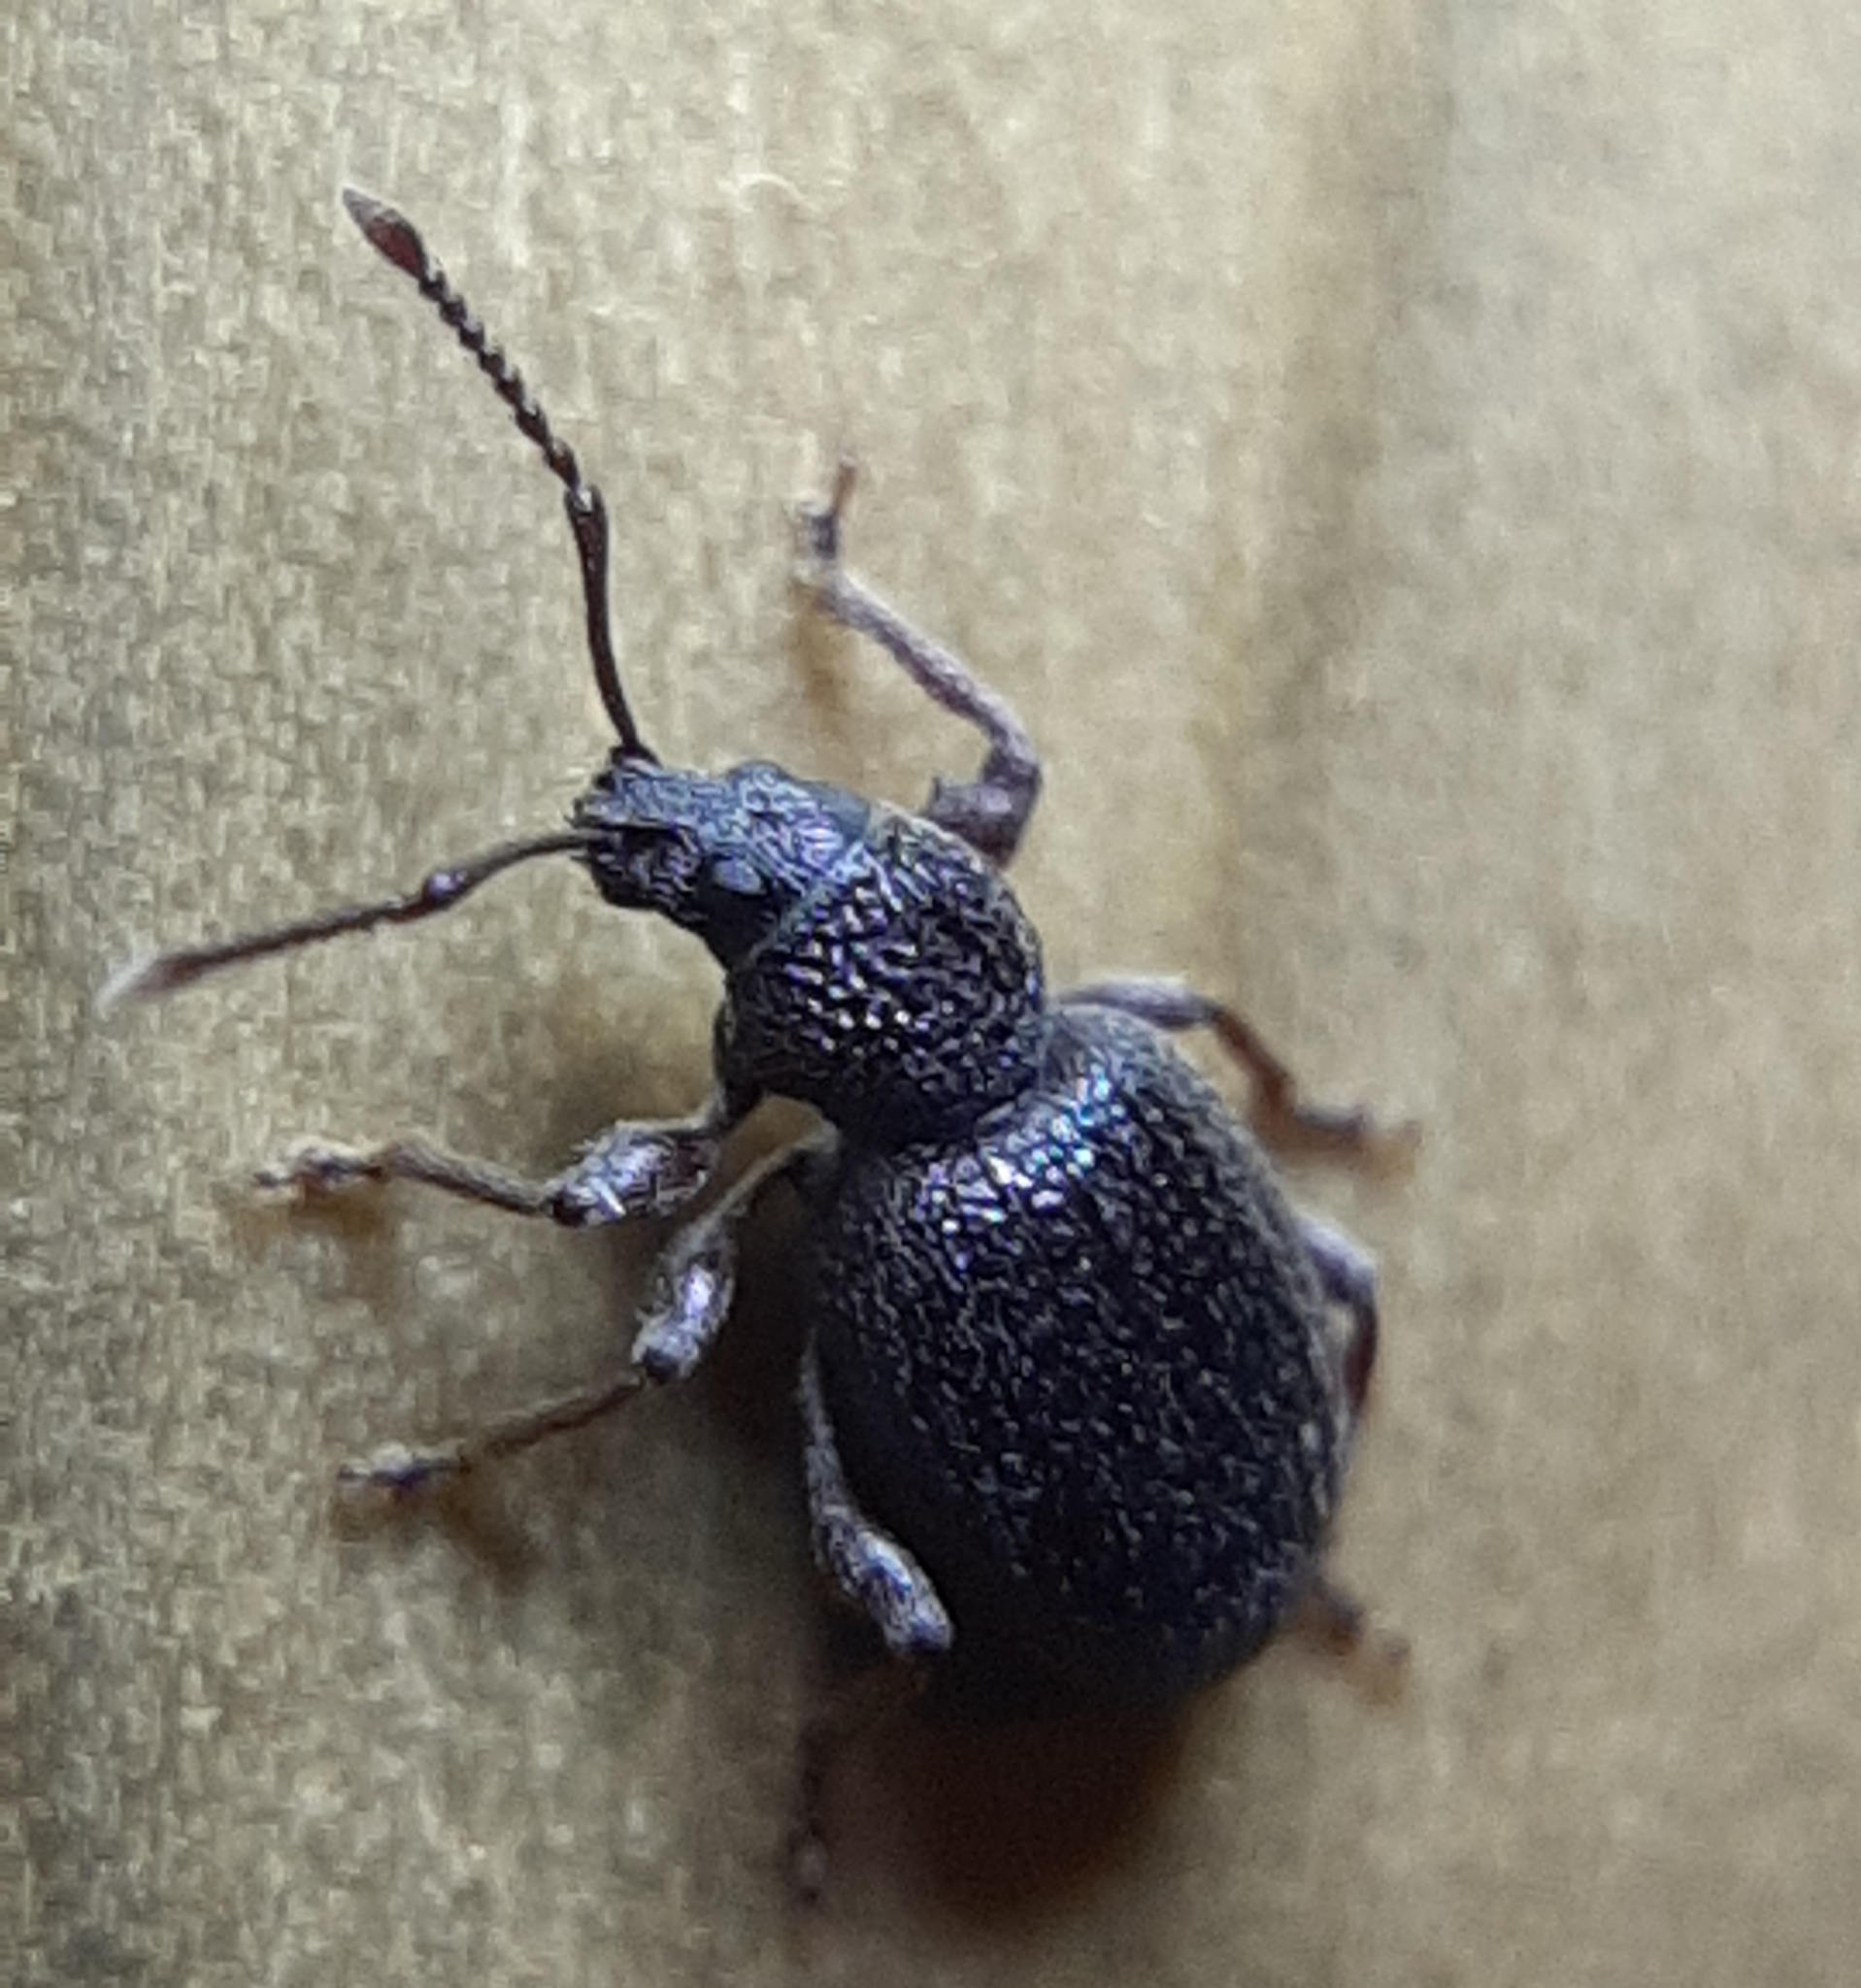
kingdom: Animalia
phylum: Arthropoda
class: Insecta
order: Coleoptera
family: Curculionidae
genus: Otiorhynchus
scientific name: Otiorhynchus ovatus
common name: Strawberry root weevil
